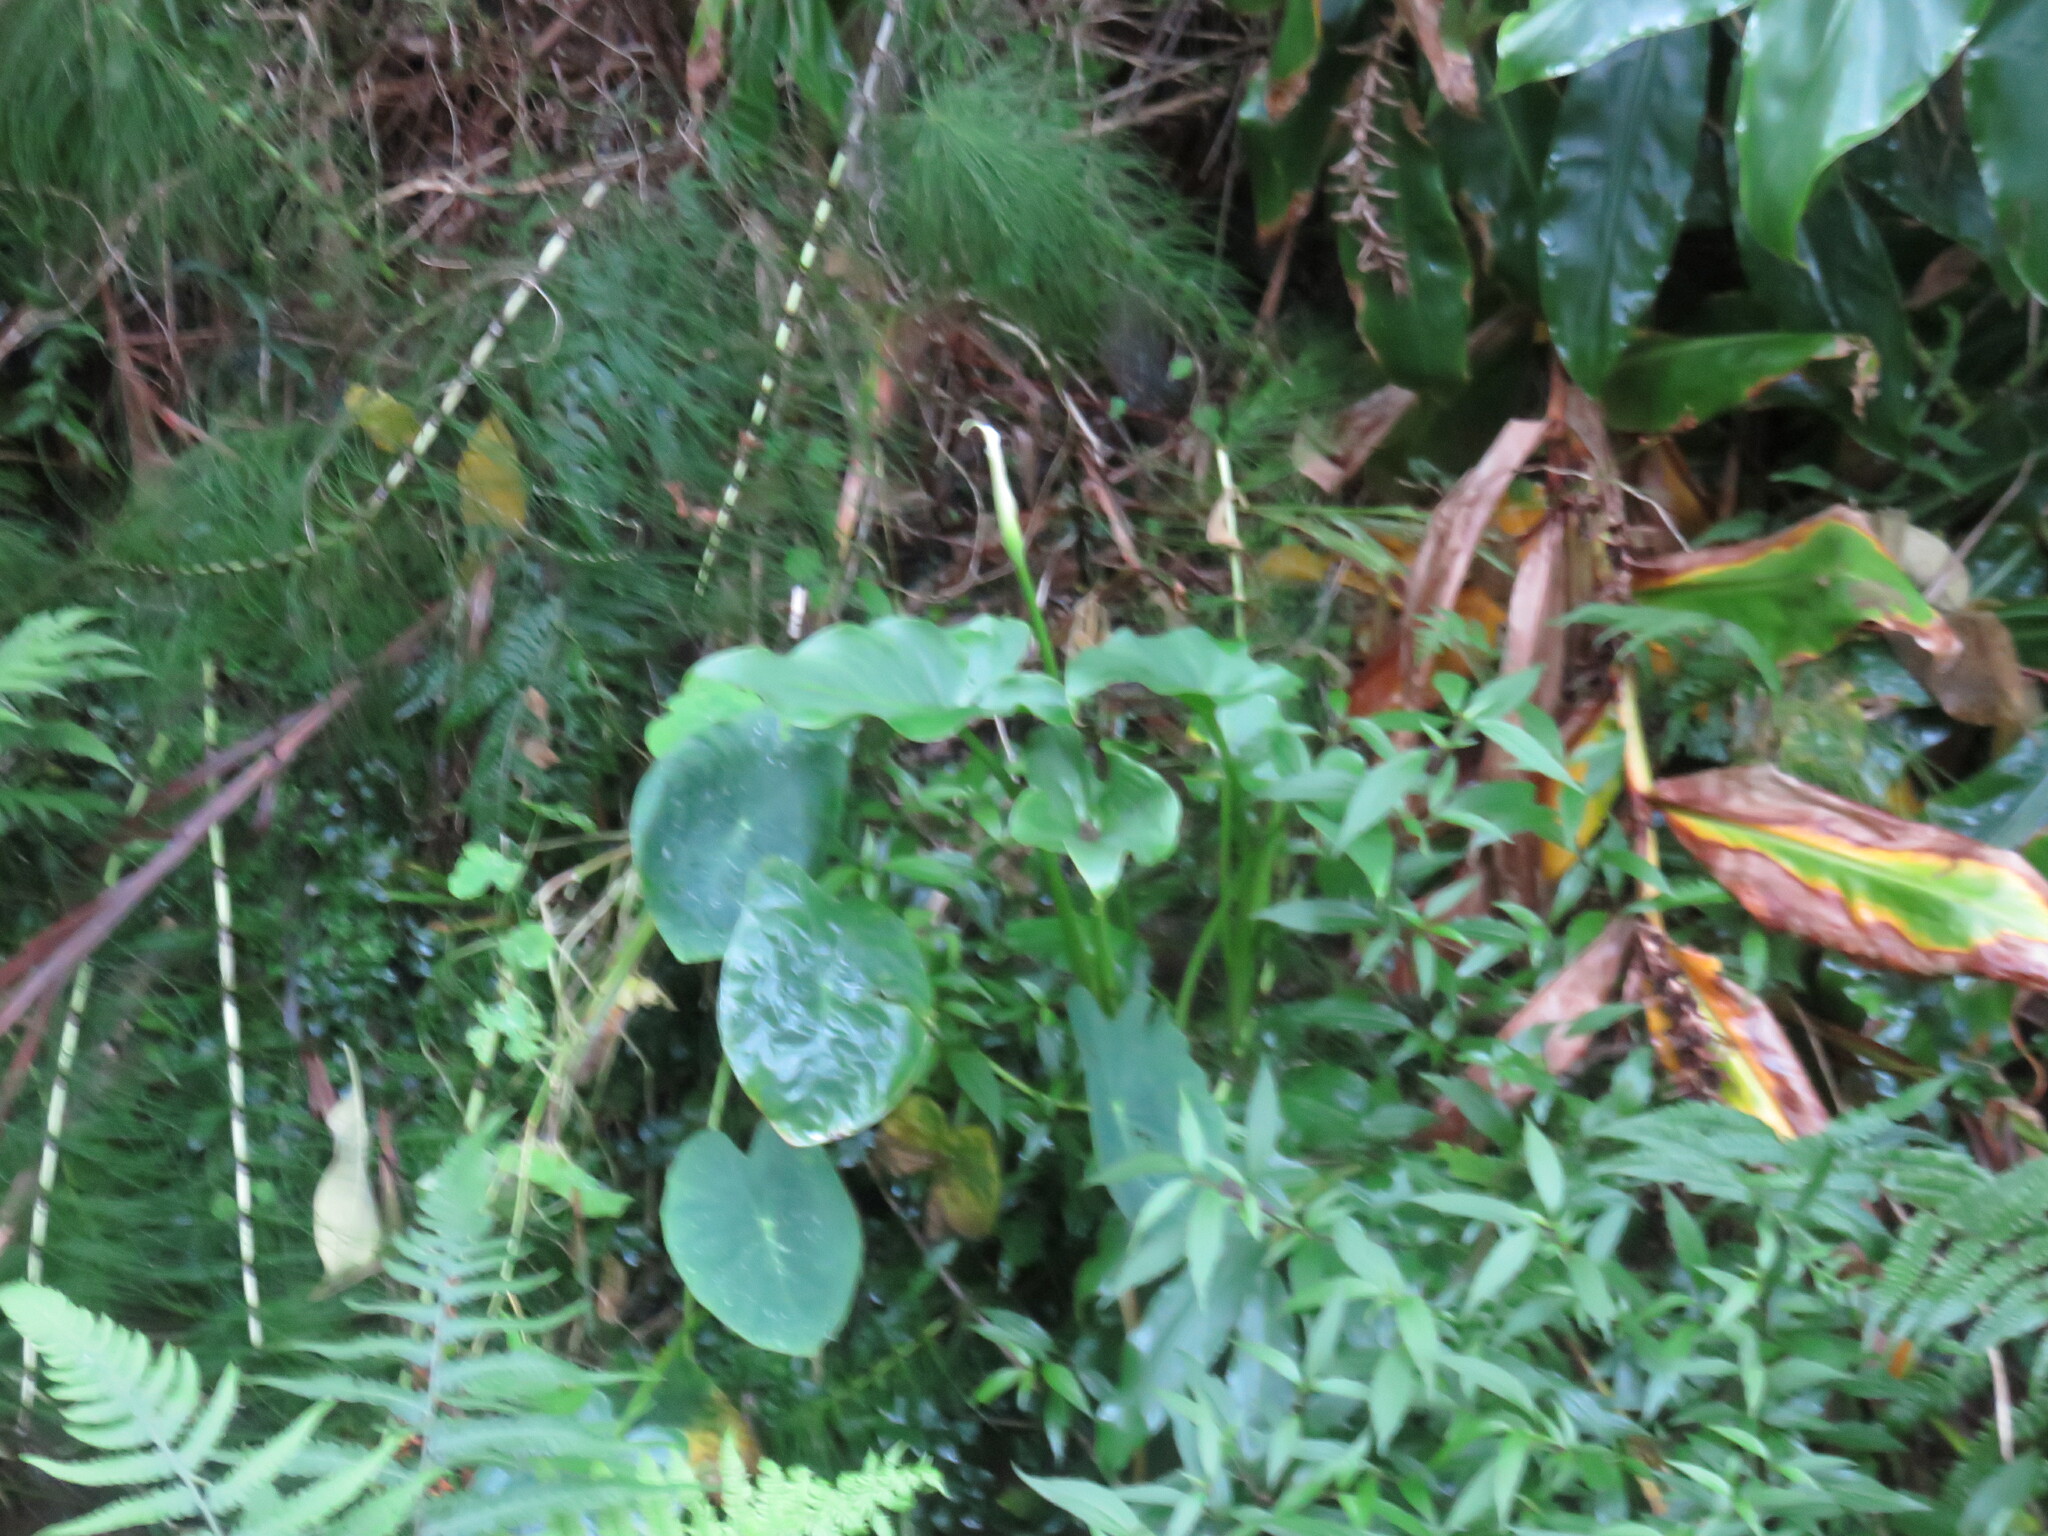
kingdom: Plantae
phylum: Tracheophyta
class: Liliopsida
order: Alismatales
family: Araceae
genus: Colocasia
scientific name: Colocasia esculenta
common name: Taro
